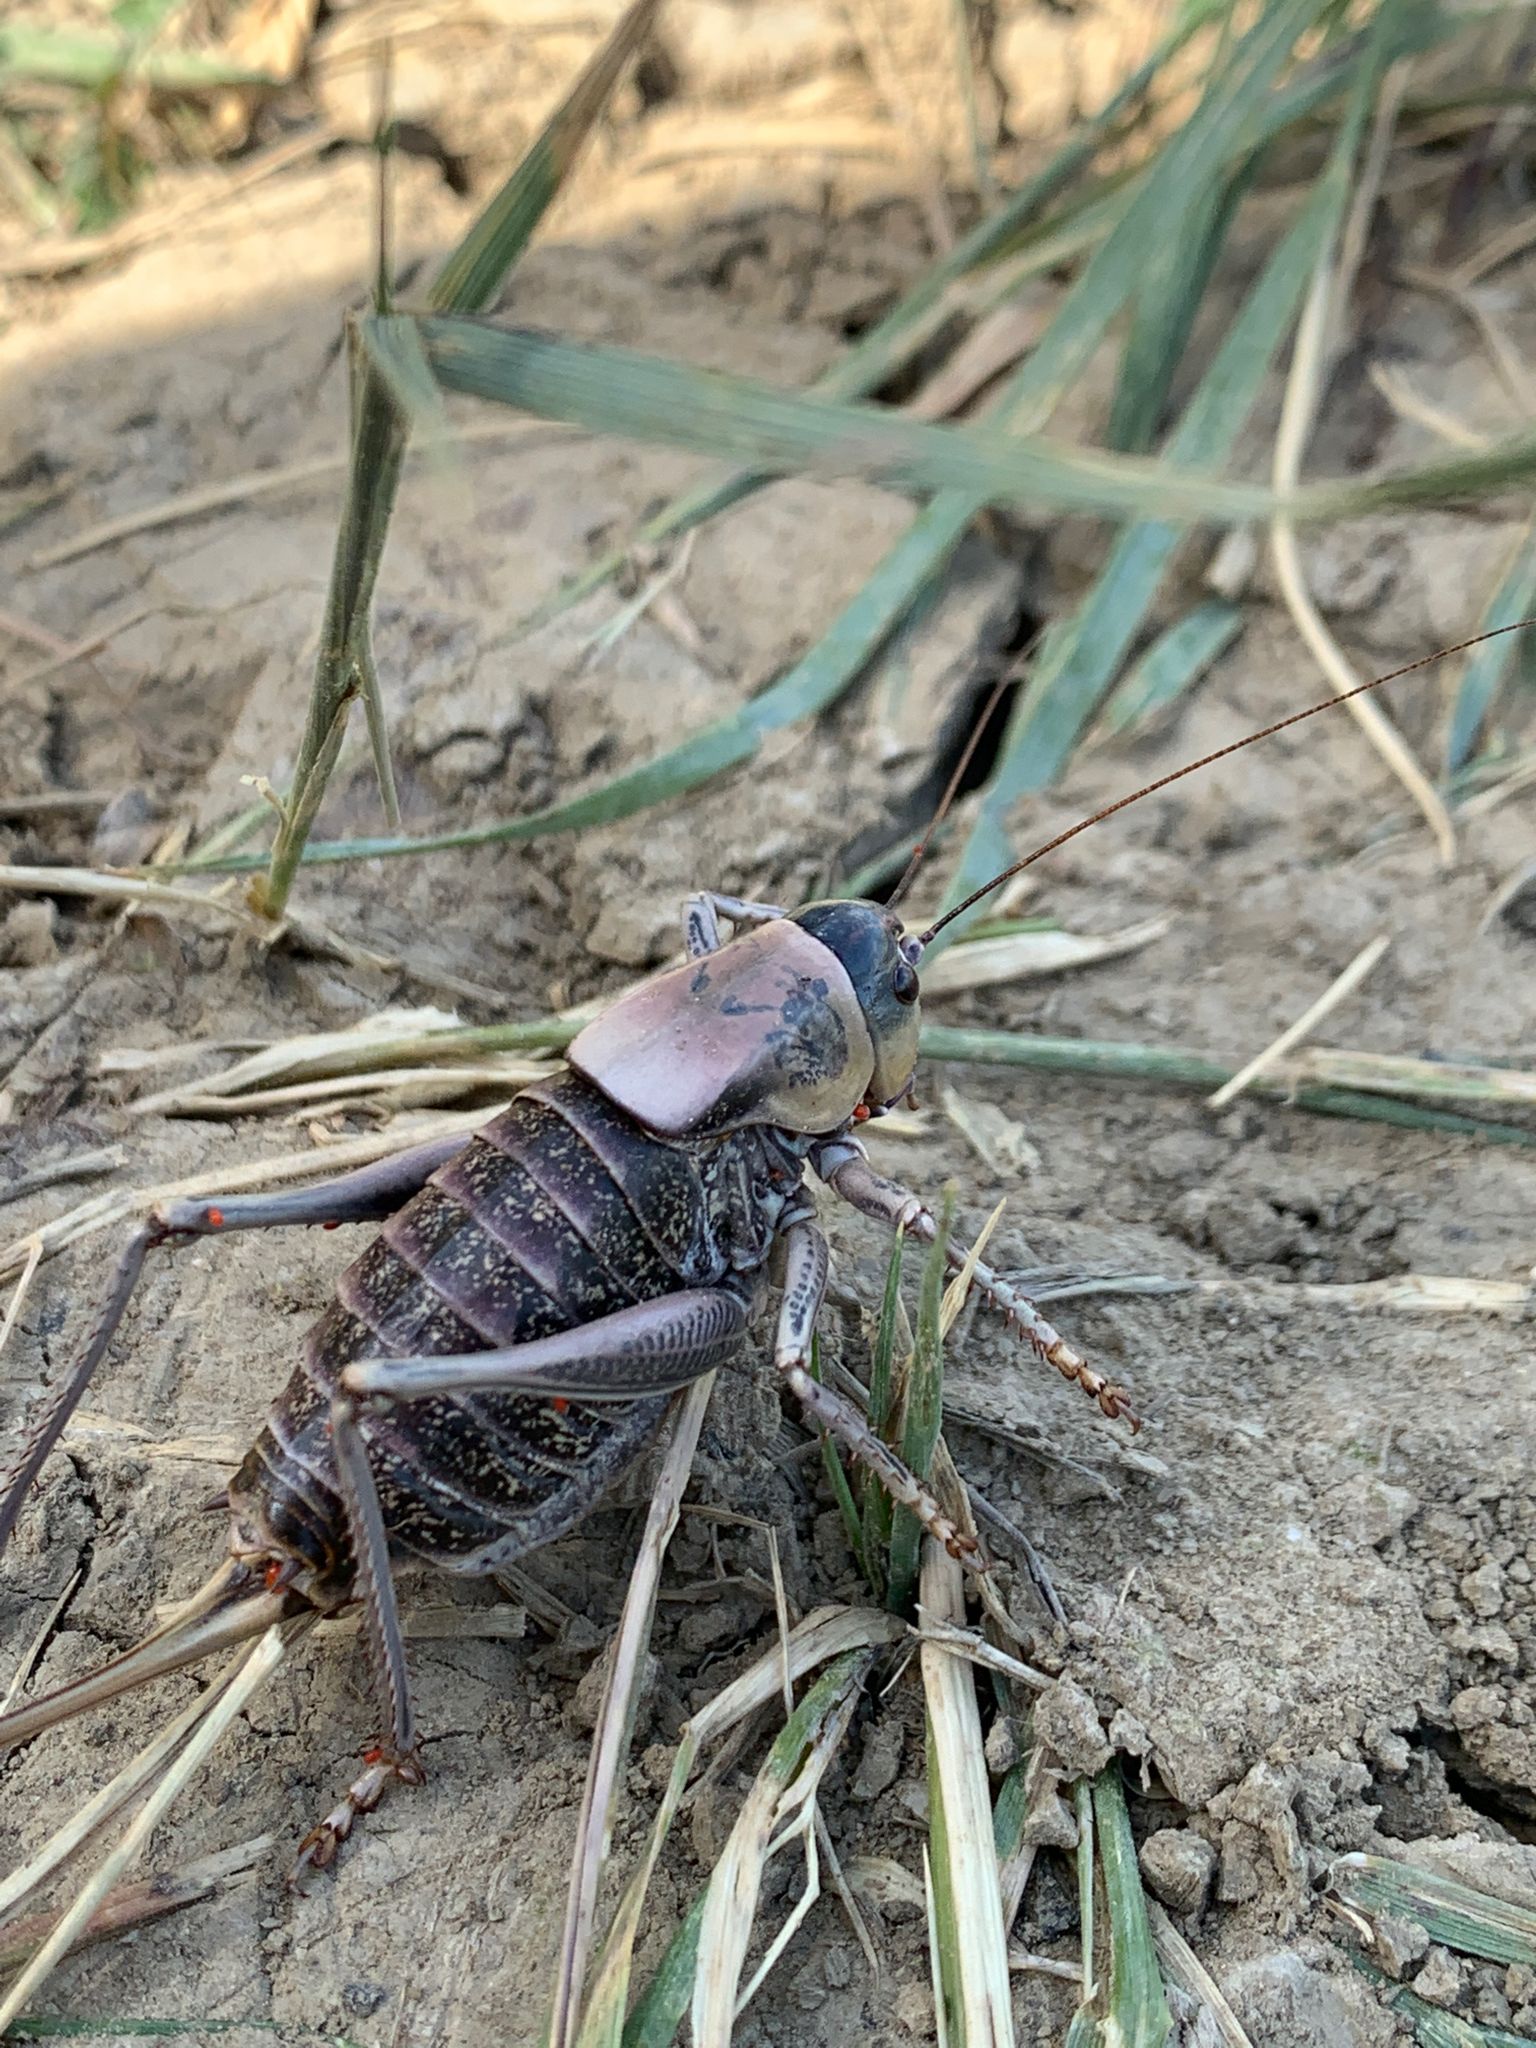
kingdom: Animalia
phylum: Arthropoda
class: Insecta
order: Orthoptera
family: Tettigoniidae
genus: Anabrus
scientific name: Anabrus simplex
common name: Mormon cricket
